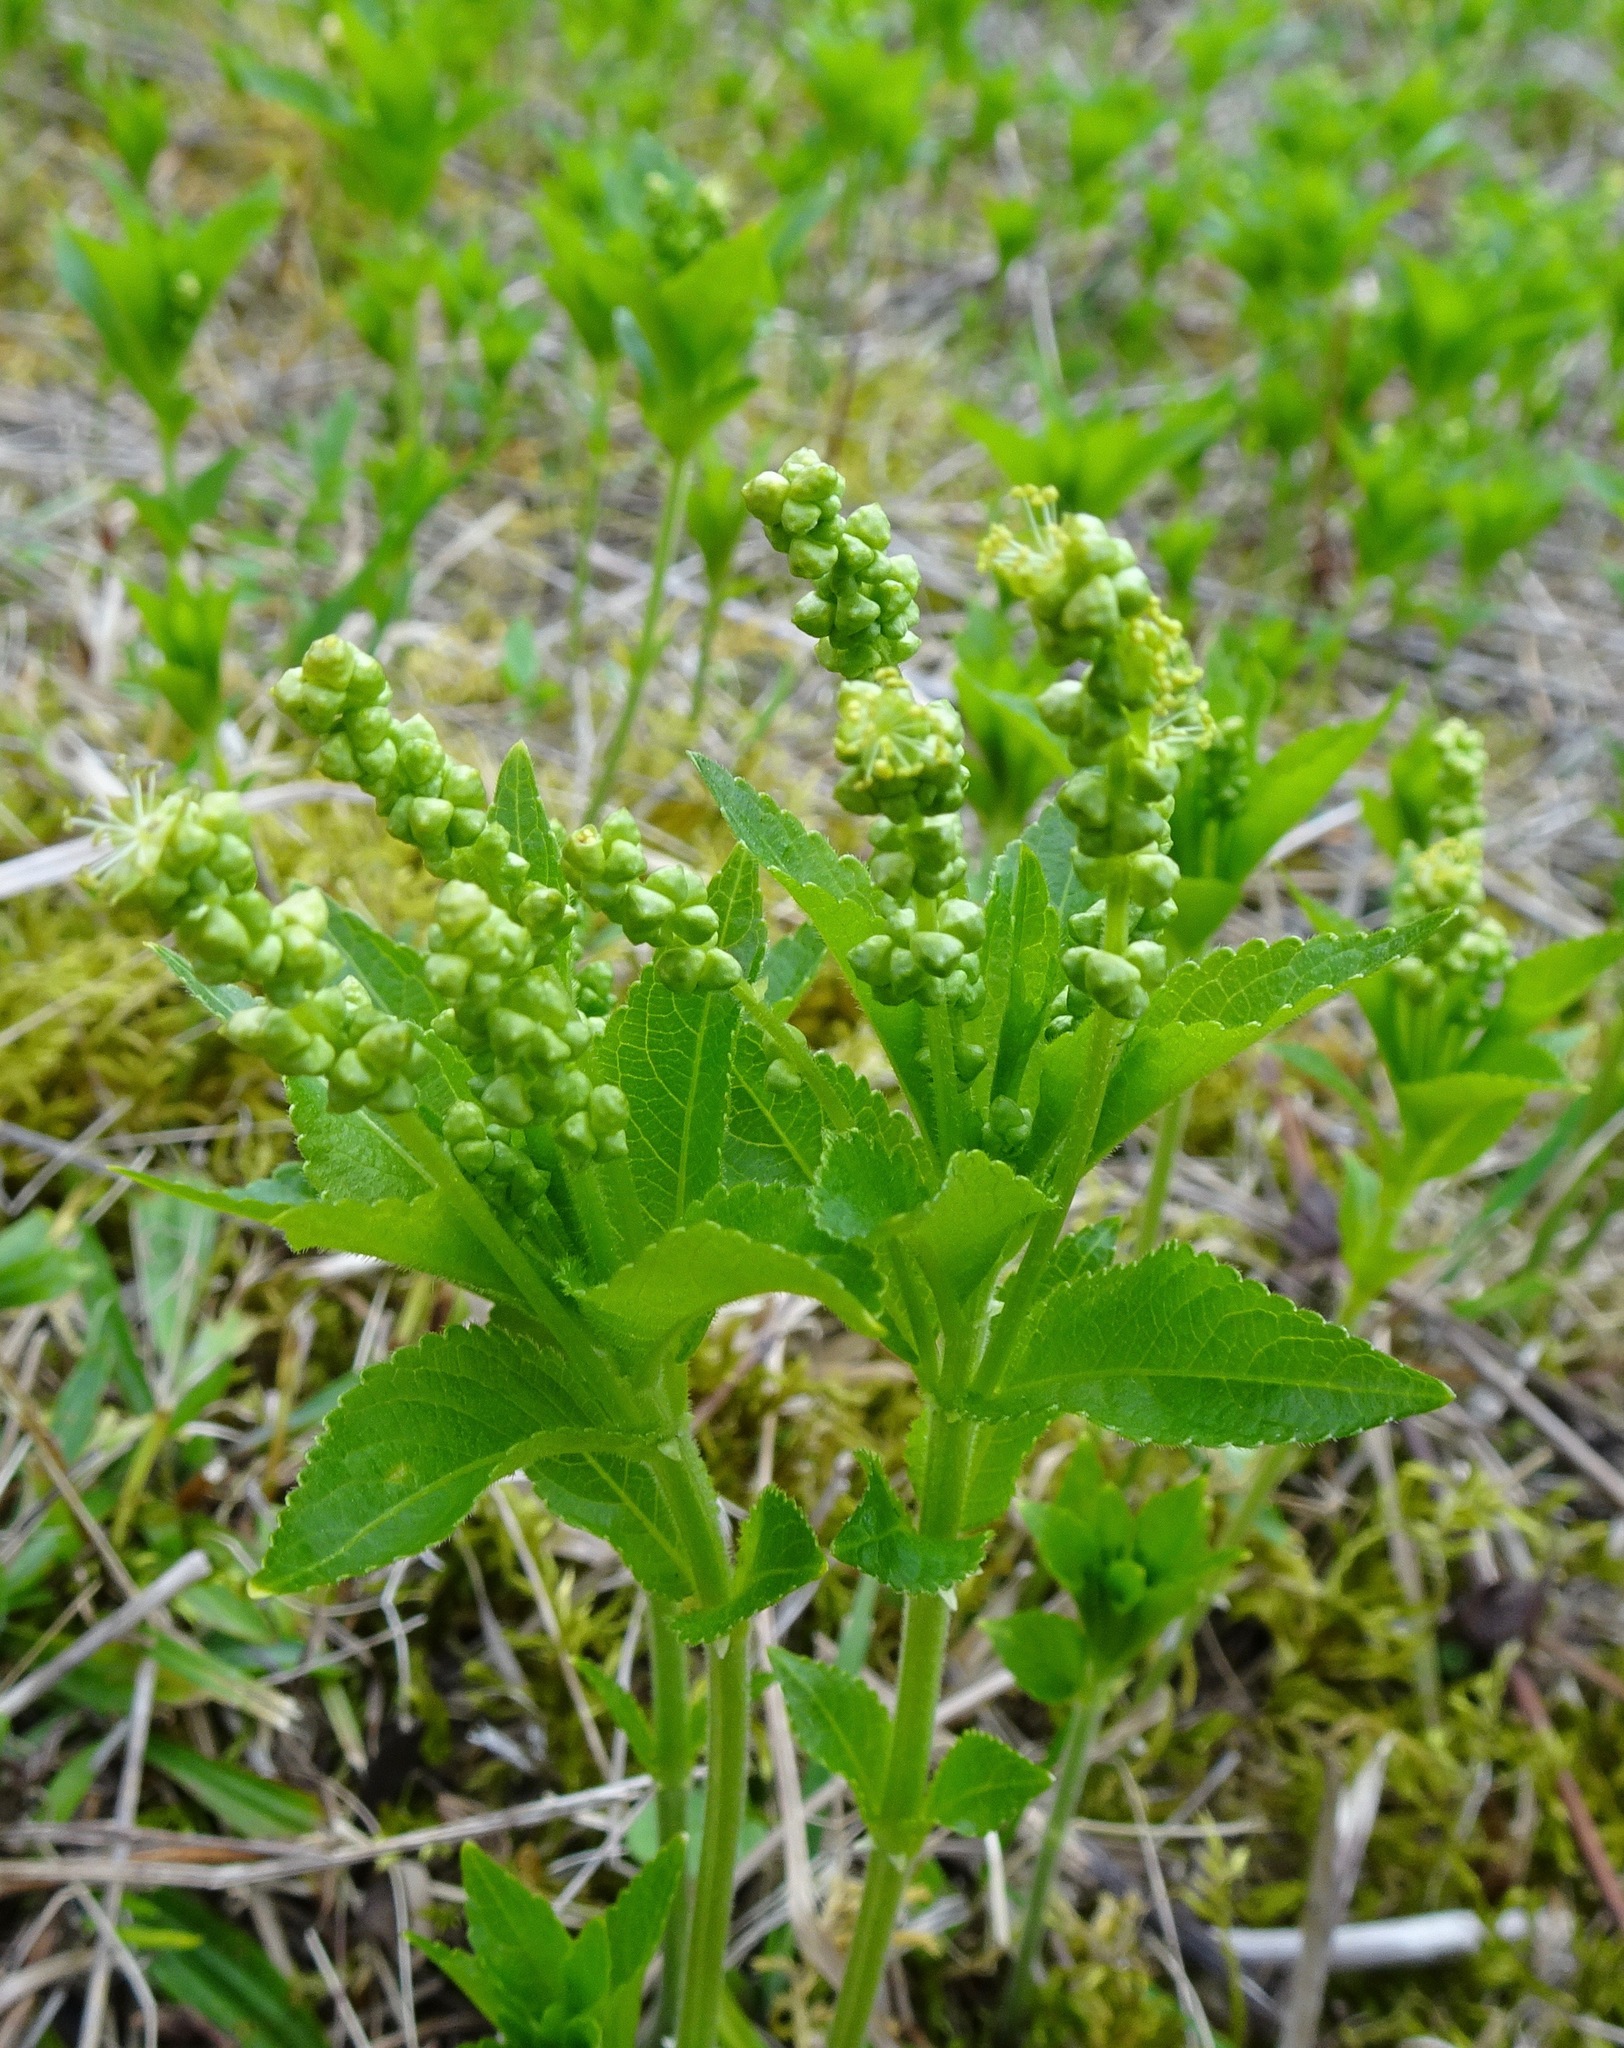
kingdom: Plantae
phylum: Tracheophyta
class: Magnoliopsida
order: Malpighiales
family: Euphorbiaceae
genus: Mercurialis
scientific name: Mercurialis perennis
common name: Dog mercury
